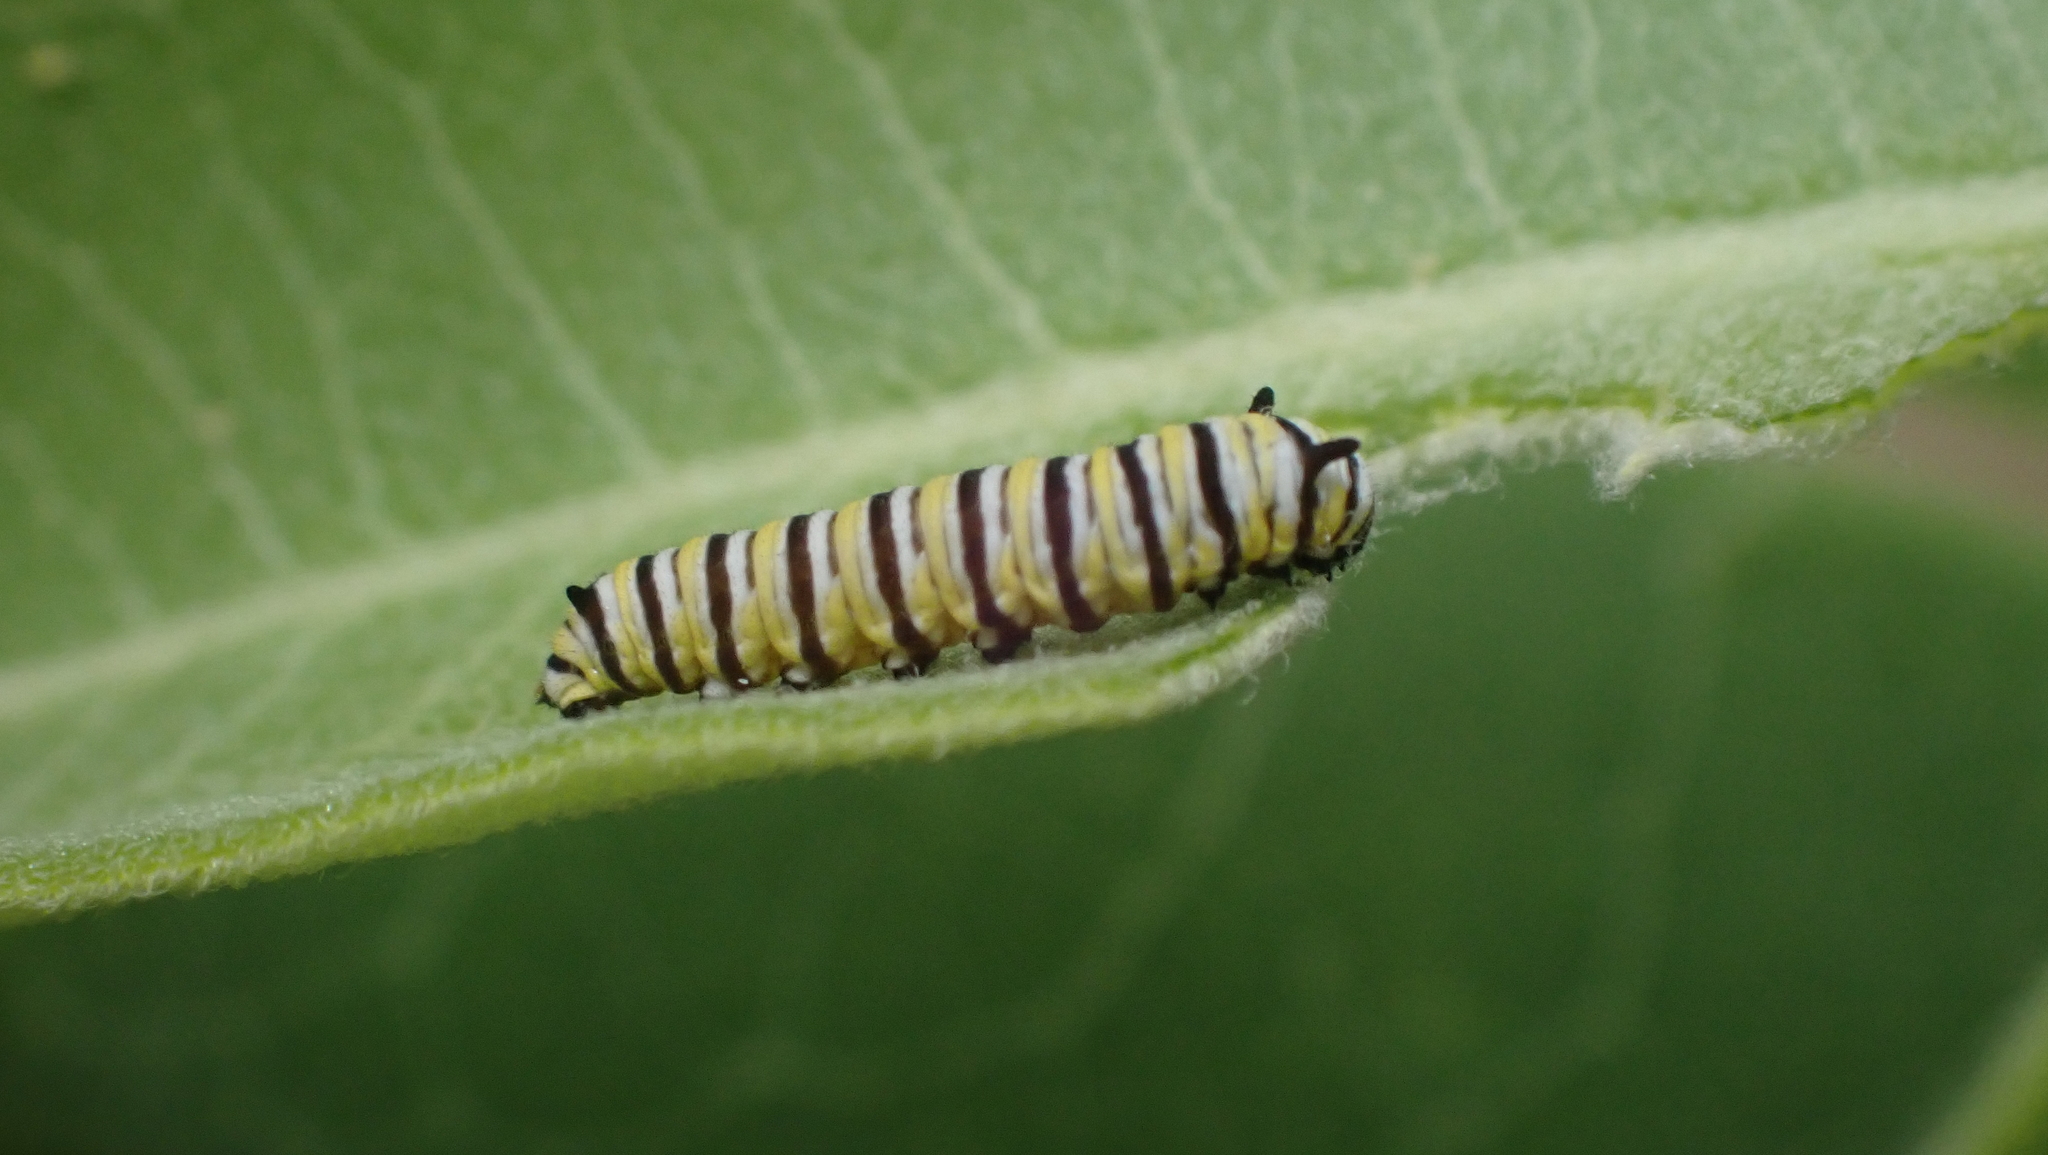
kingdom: Animalia
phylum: Arthropoda
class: Insecta
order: Lepidoptera
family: Nymphalidae
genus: Danaus
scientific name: Danaus plexippus
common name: Monarch
